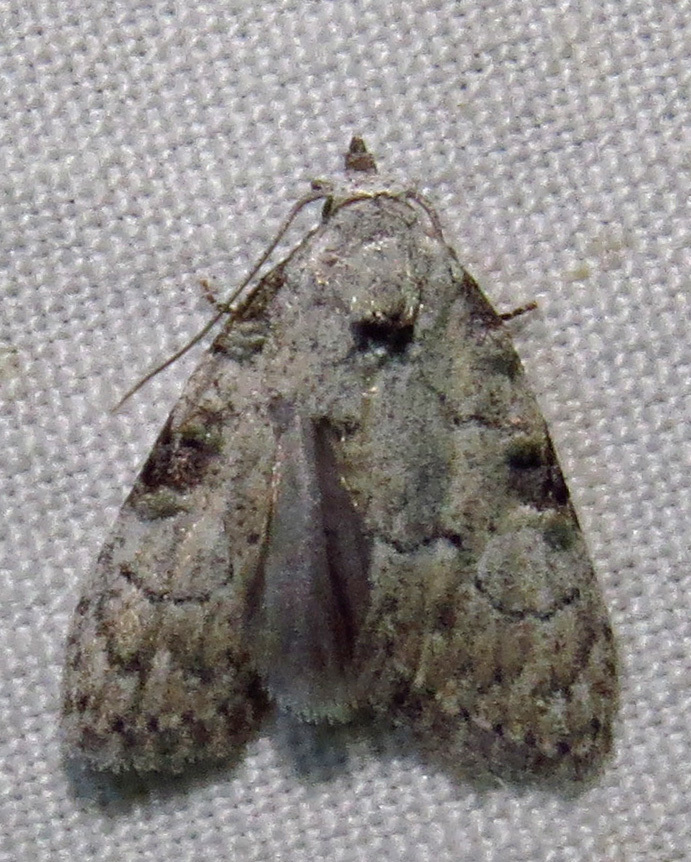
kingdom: Animalia
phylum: Arthropoda
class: Insecta
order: Lepidoptera
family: Nolidae
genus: Meganola
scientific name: Meganola minuscula
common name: Confused meganola moth
